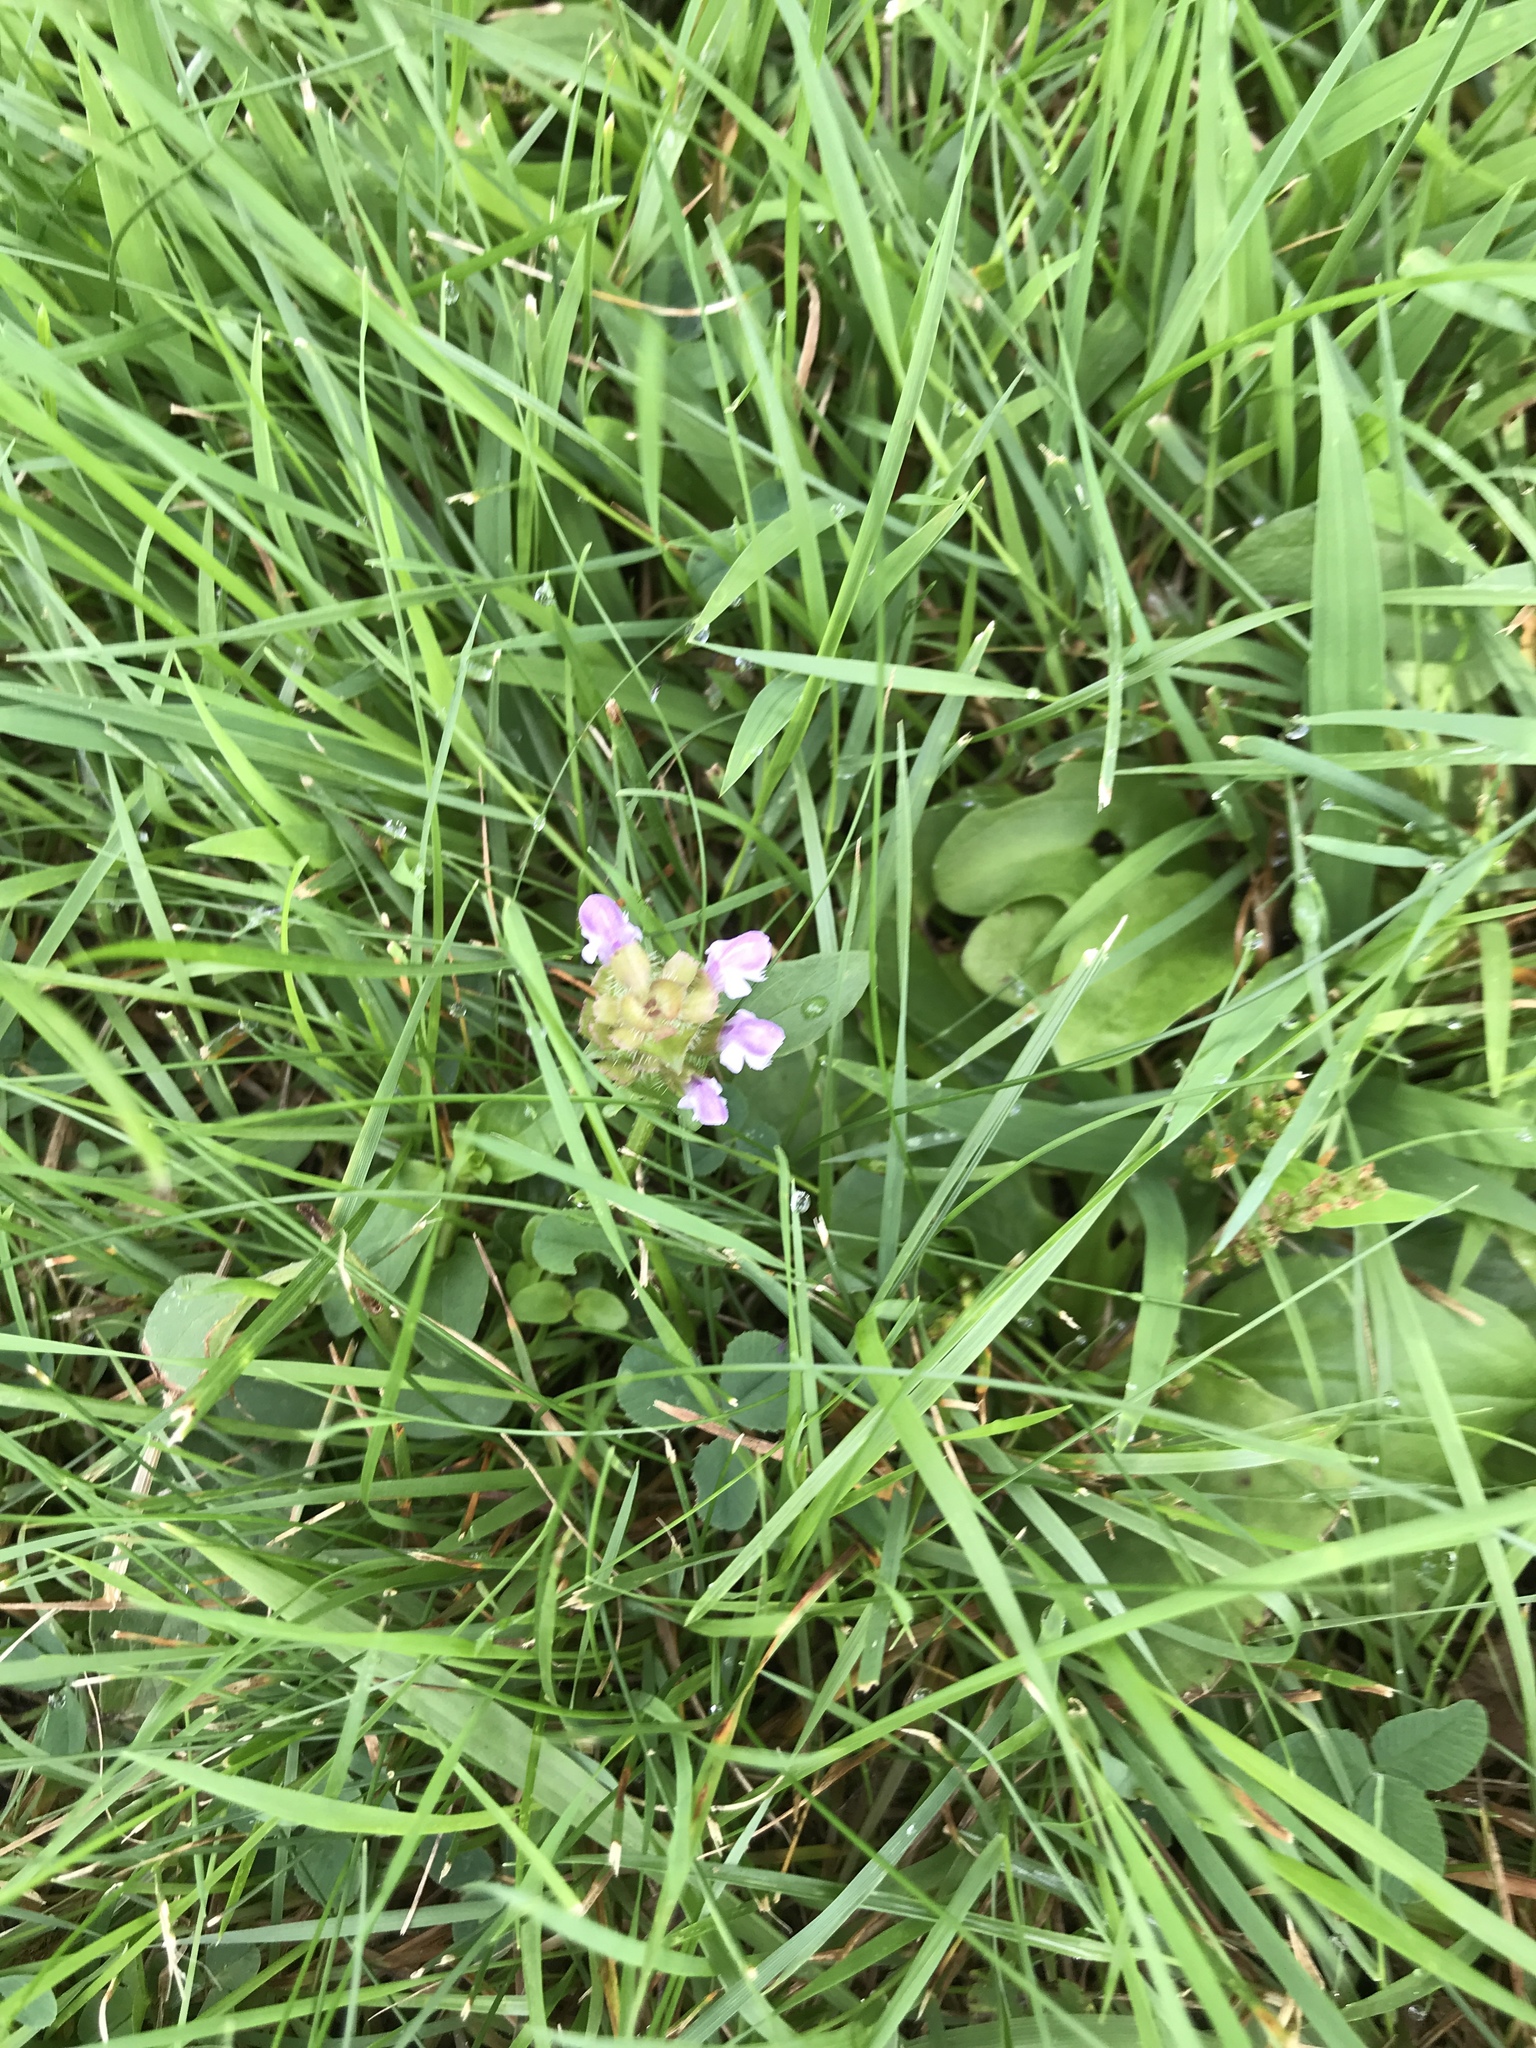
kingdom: Plantae
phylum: Tracheophyta
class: Magnoliopsida
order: Lamiales
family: Lamiaceae
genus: Prunella
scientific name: Prunella vulgaris
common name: Heal-all
